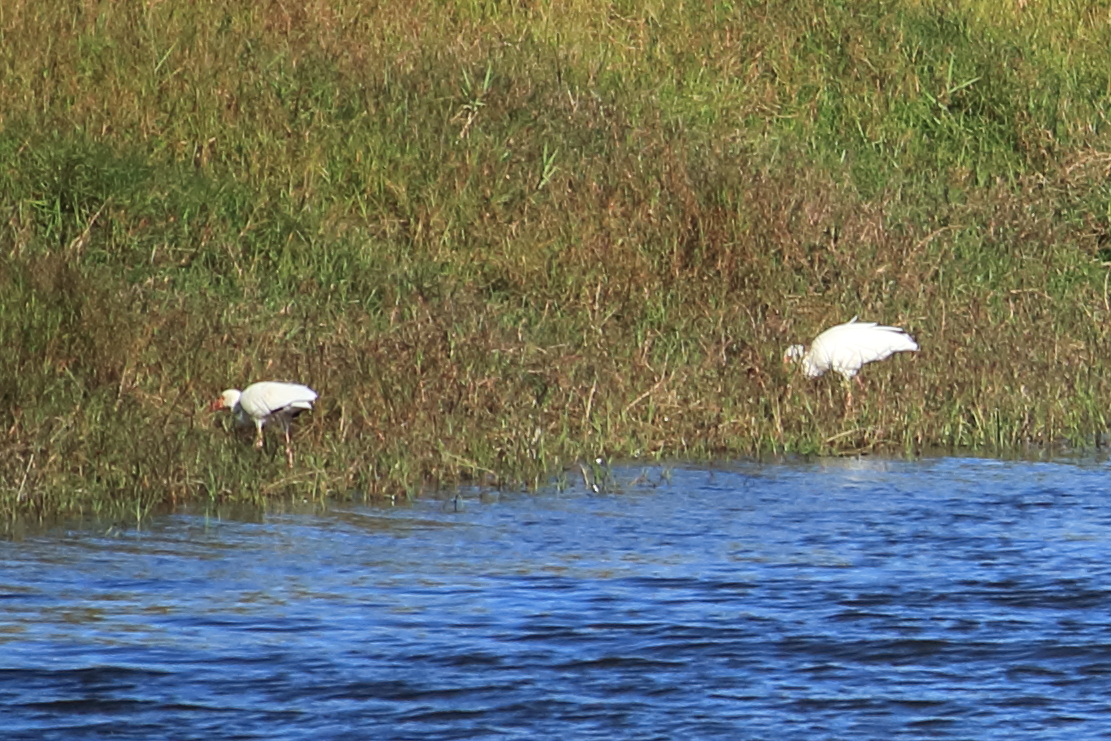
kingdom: Animalia
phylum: Chordata
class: Aves
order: Pelecaniformes
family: Threskiornithidae
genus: Eudocimus
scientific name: Eudocimus albus
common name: White ibis
